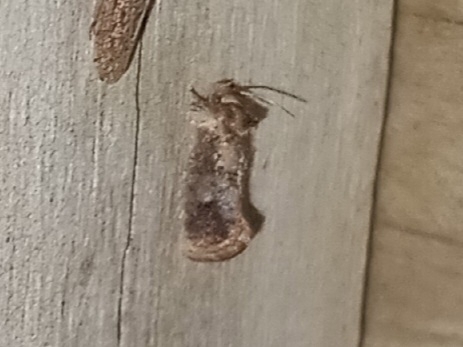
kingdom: Animalia
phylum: Arthropoda
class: Insecta
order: Lepidoptera
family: Tineidae
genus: Acrolophus
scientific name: Acrolophus panamae
